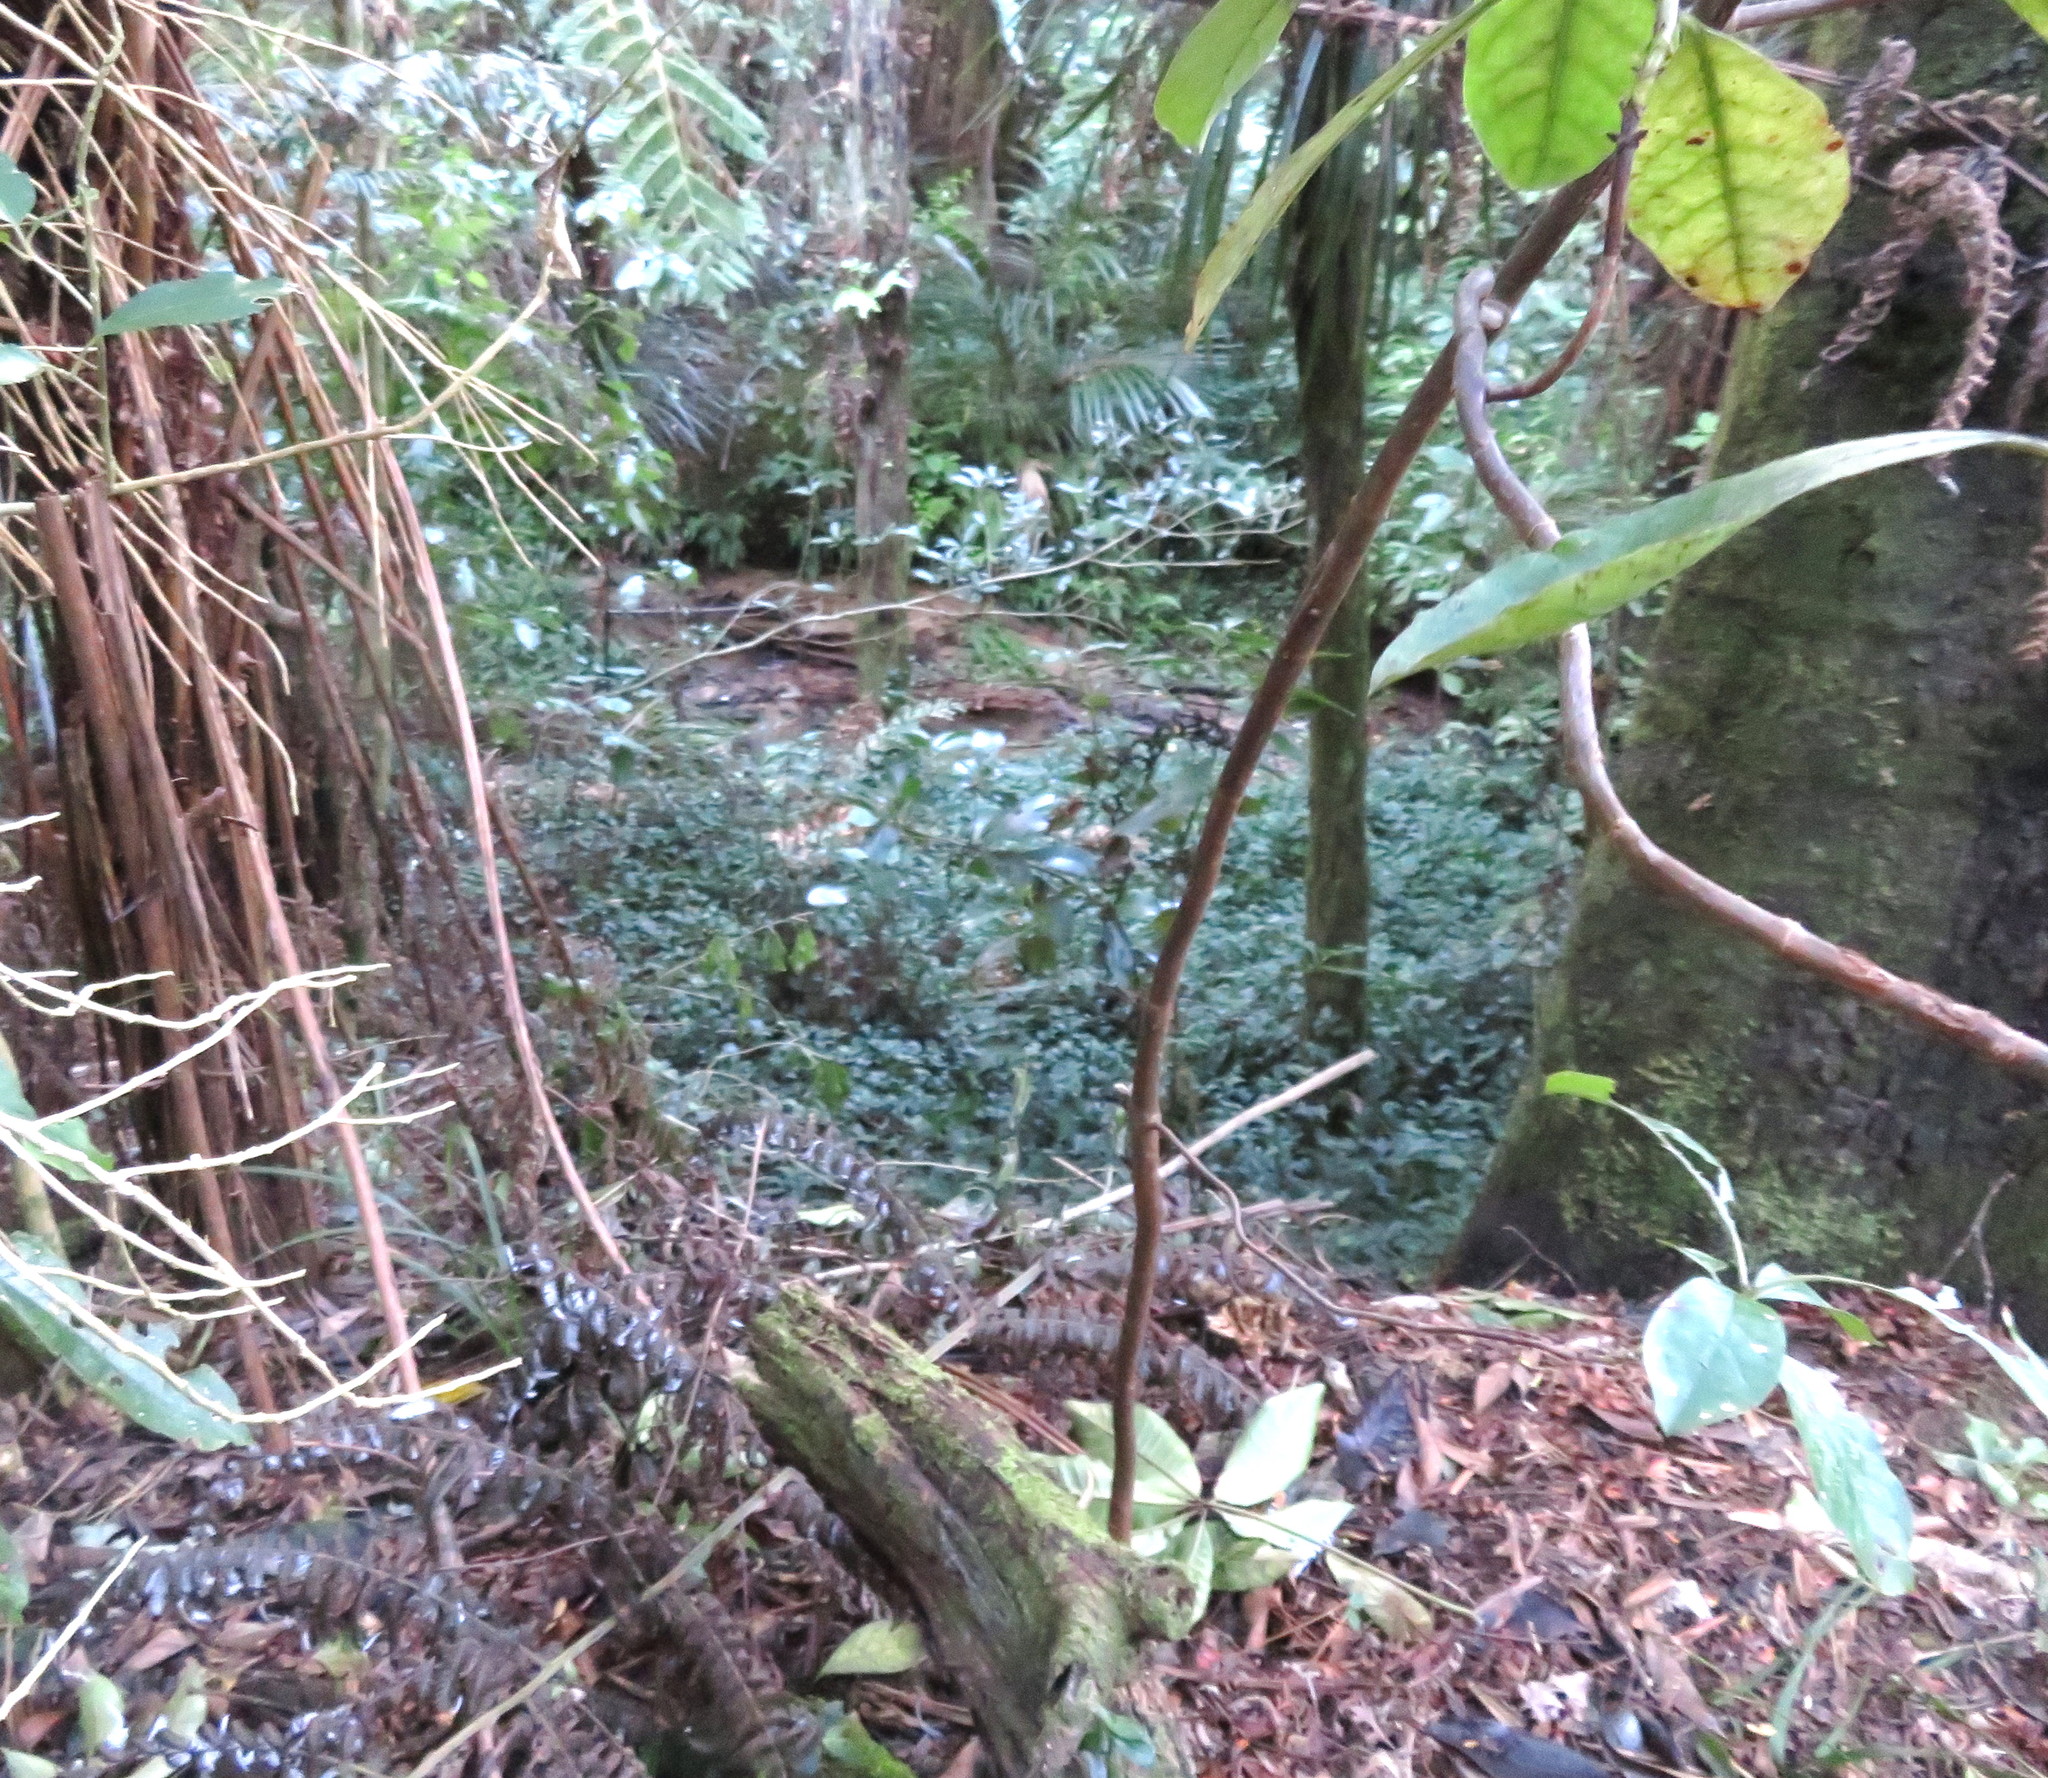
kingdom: Plantae
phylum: Tracheophyta
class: Liliopsida
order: Commelinales
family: Commelinaceae
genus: Tradescantia
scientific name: Tradescantia fluminensis
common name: Wandering-jew
